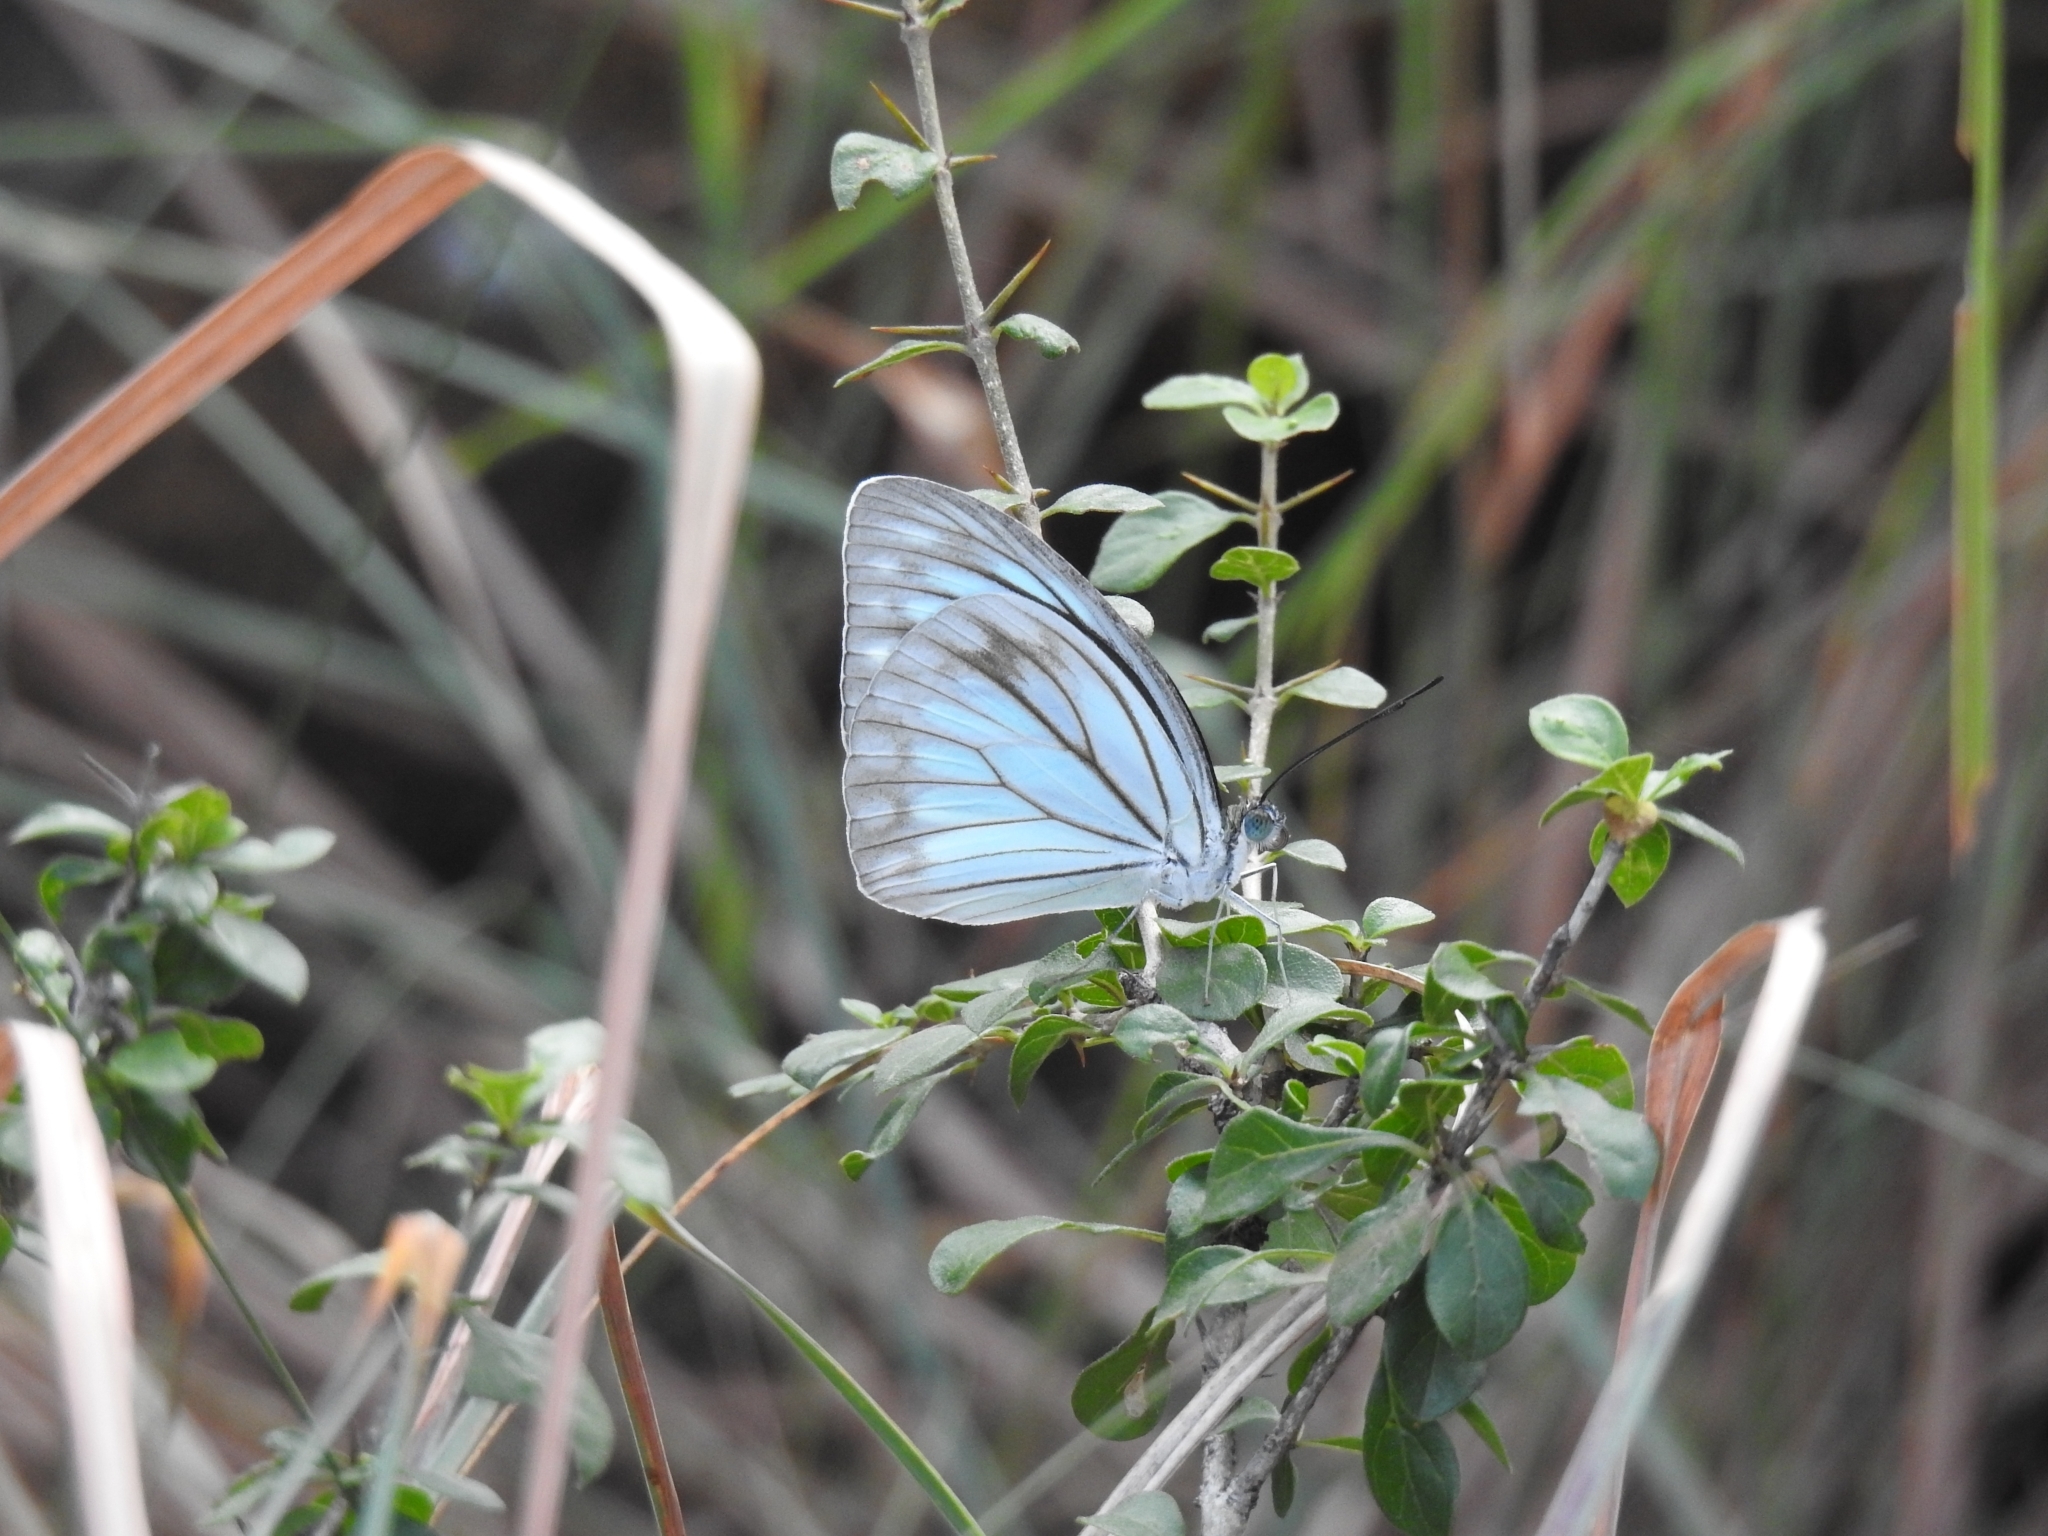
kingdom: Animalia
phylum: Arthropoda
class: Insecta
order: Lepidoptera
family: Pieridae
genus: Pareronia
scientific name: Pareronia hippia
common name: Indian wanderer
